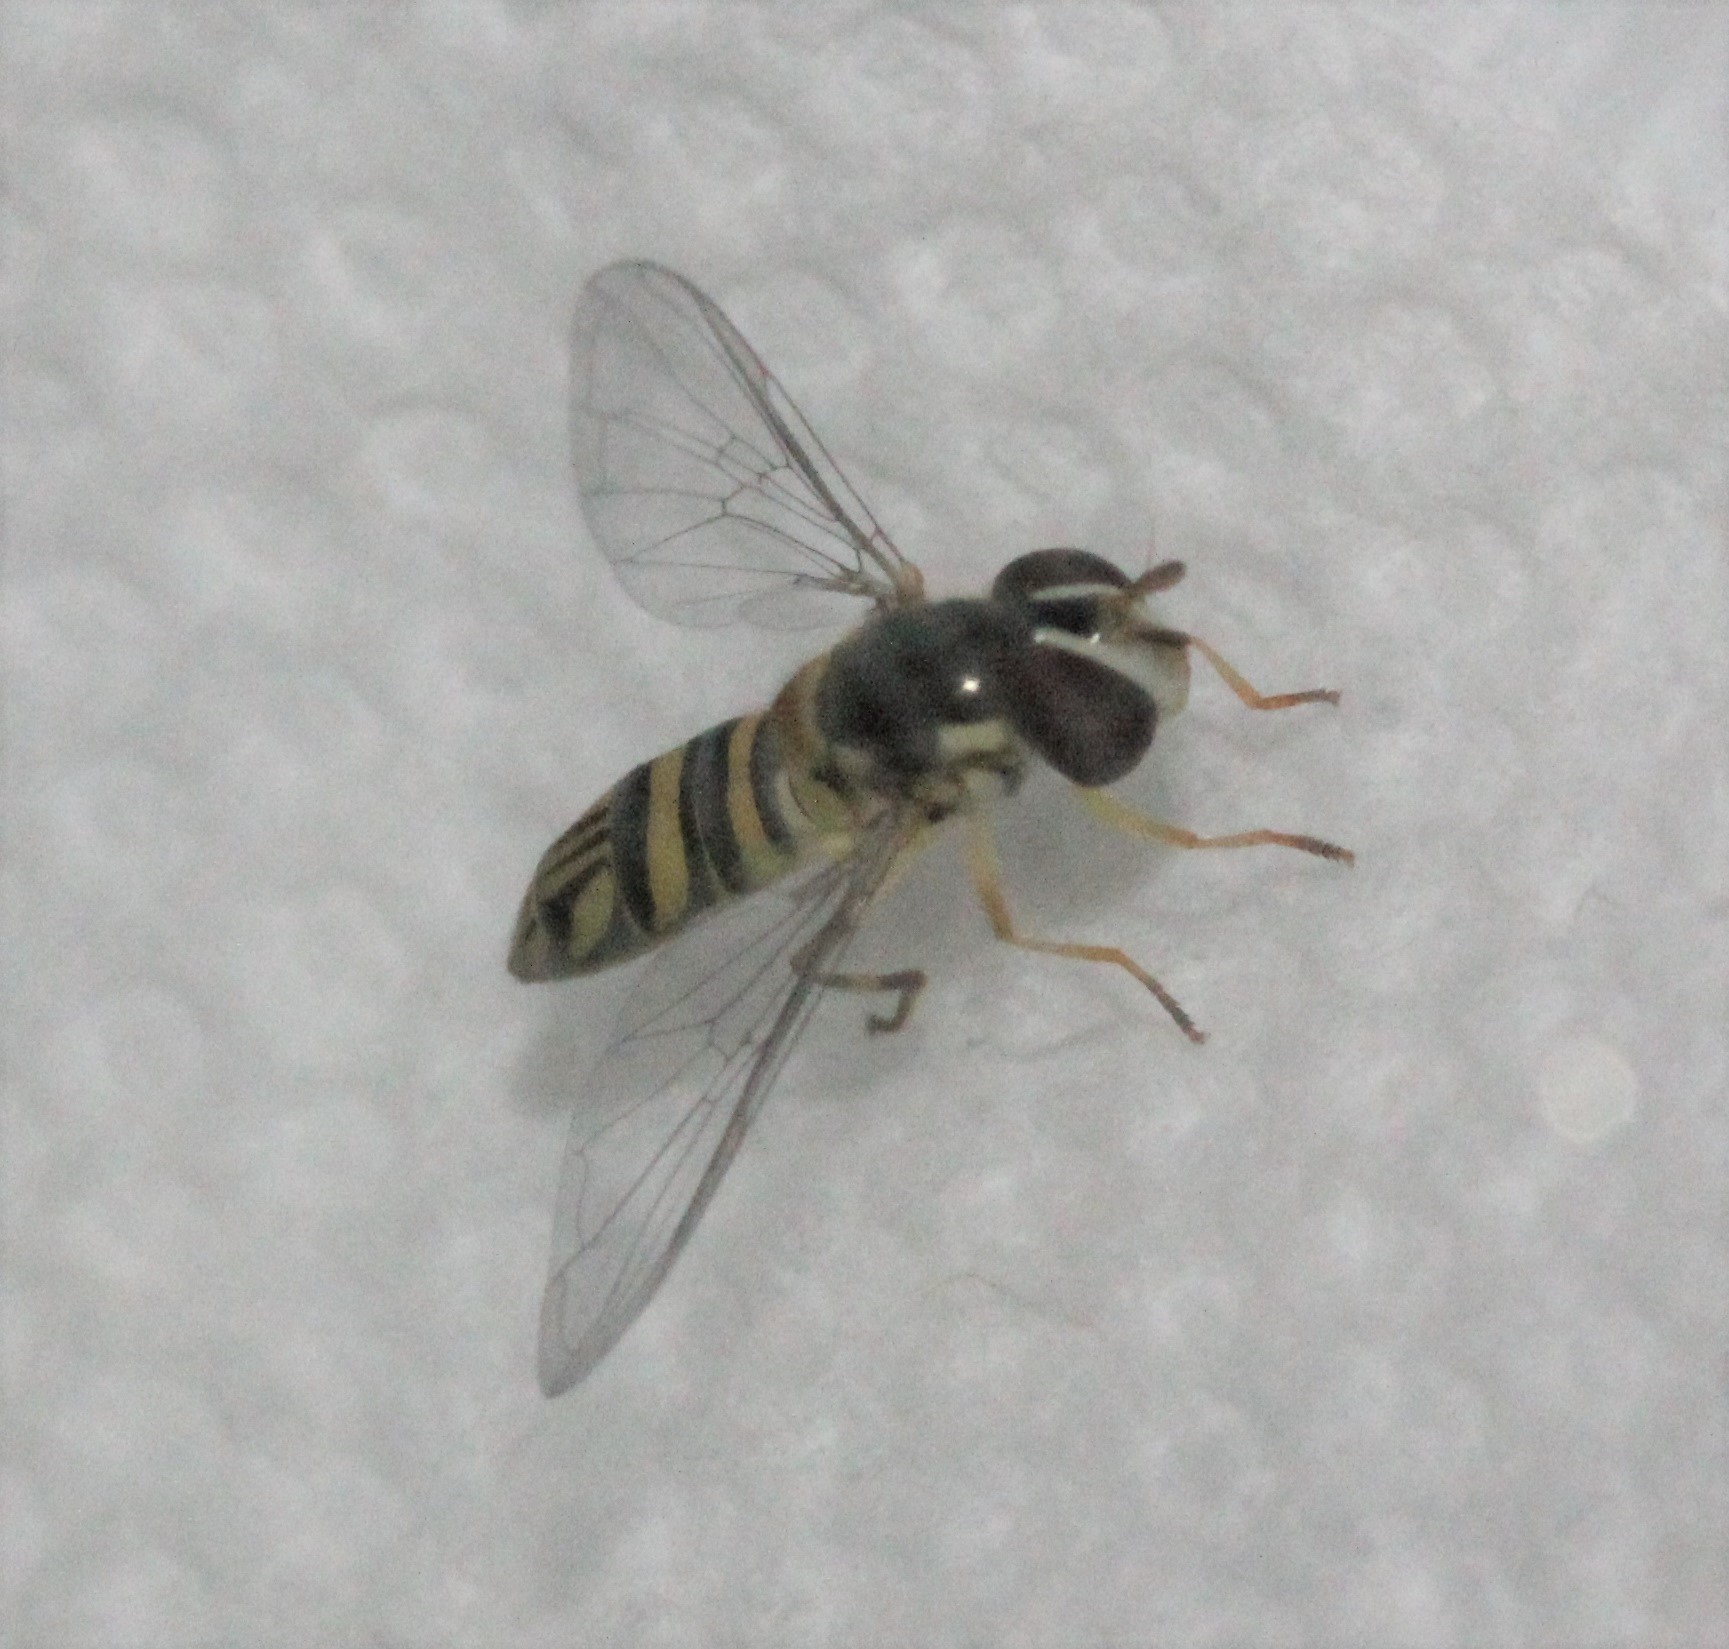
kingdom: Animalia
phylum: Arthropoda
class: Insecta
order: Diptera
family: Syrphidae
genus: Allograpta
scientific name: Allograpta obliqua
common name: Common oblique syrphid
